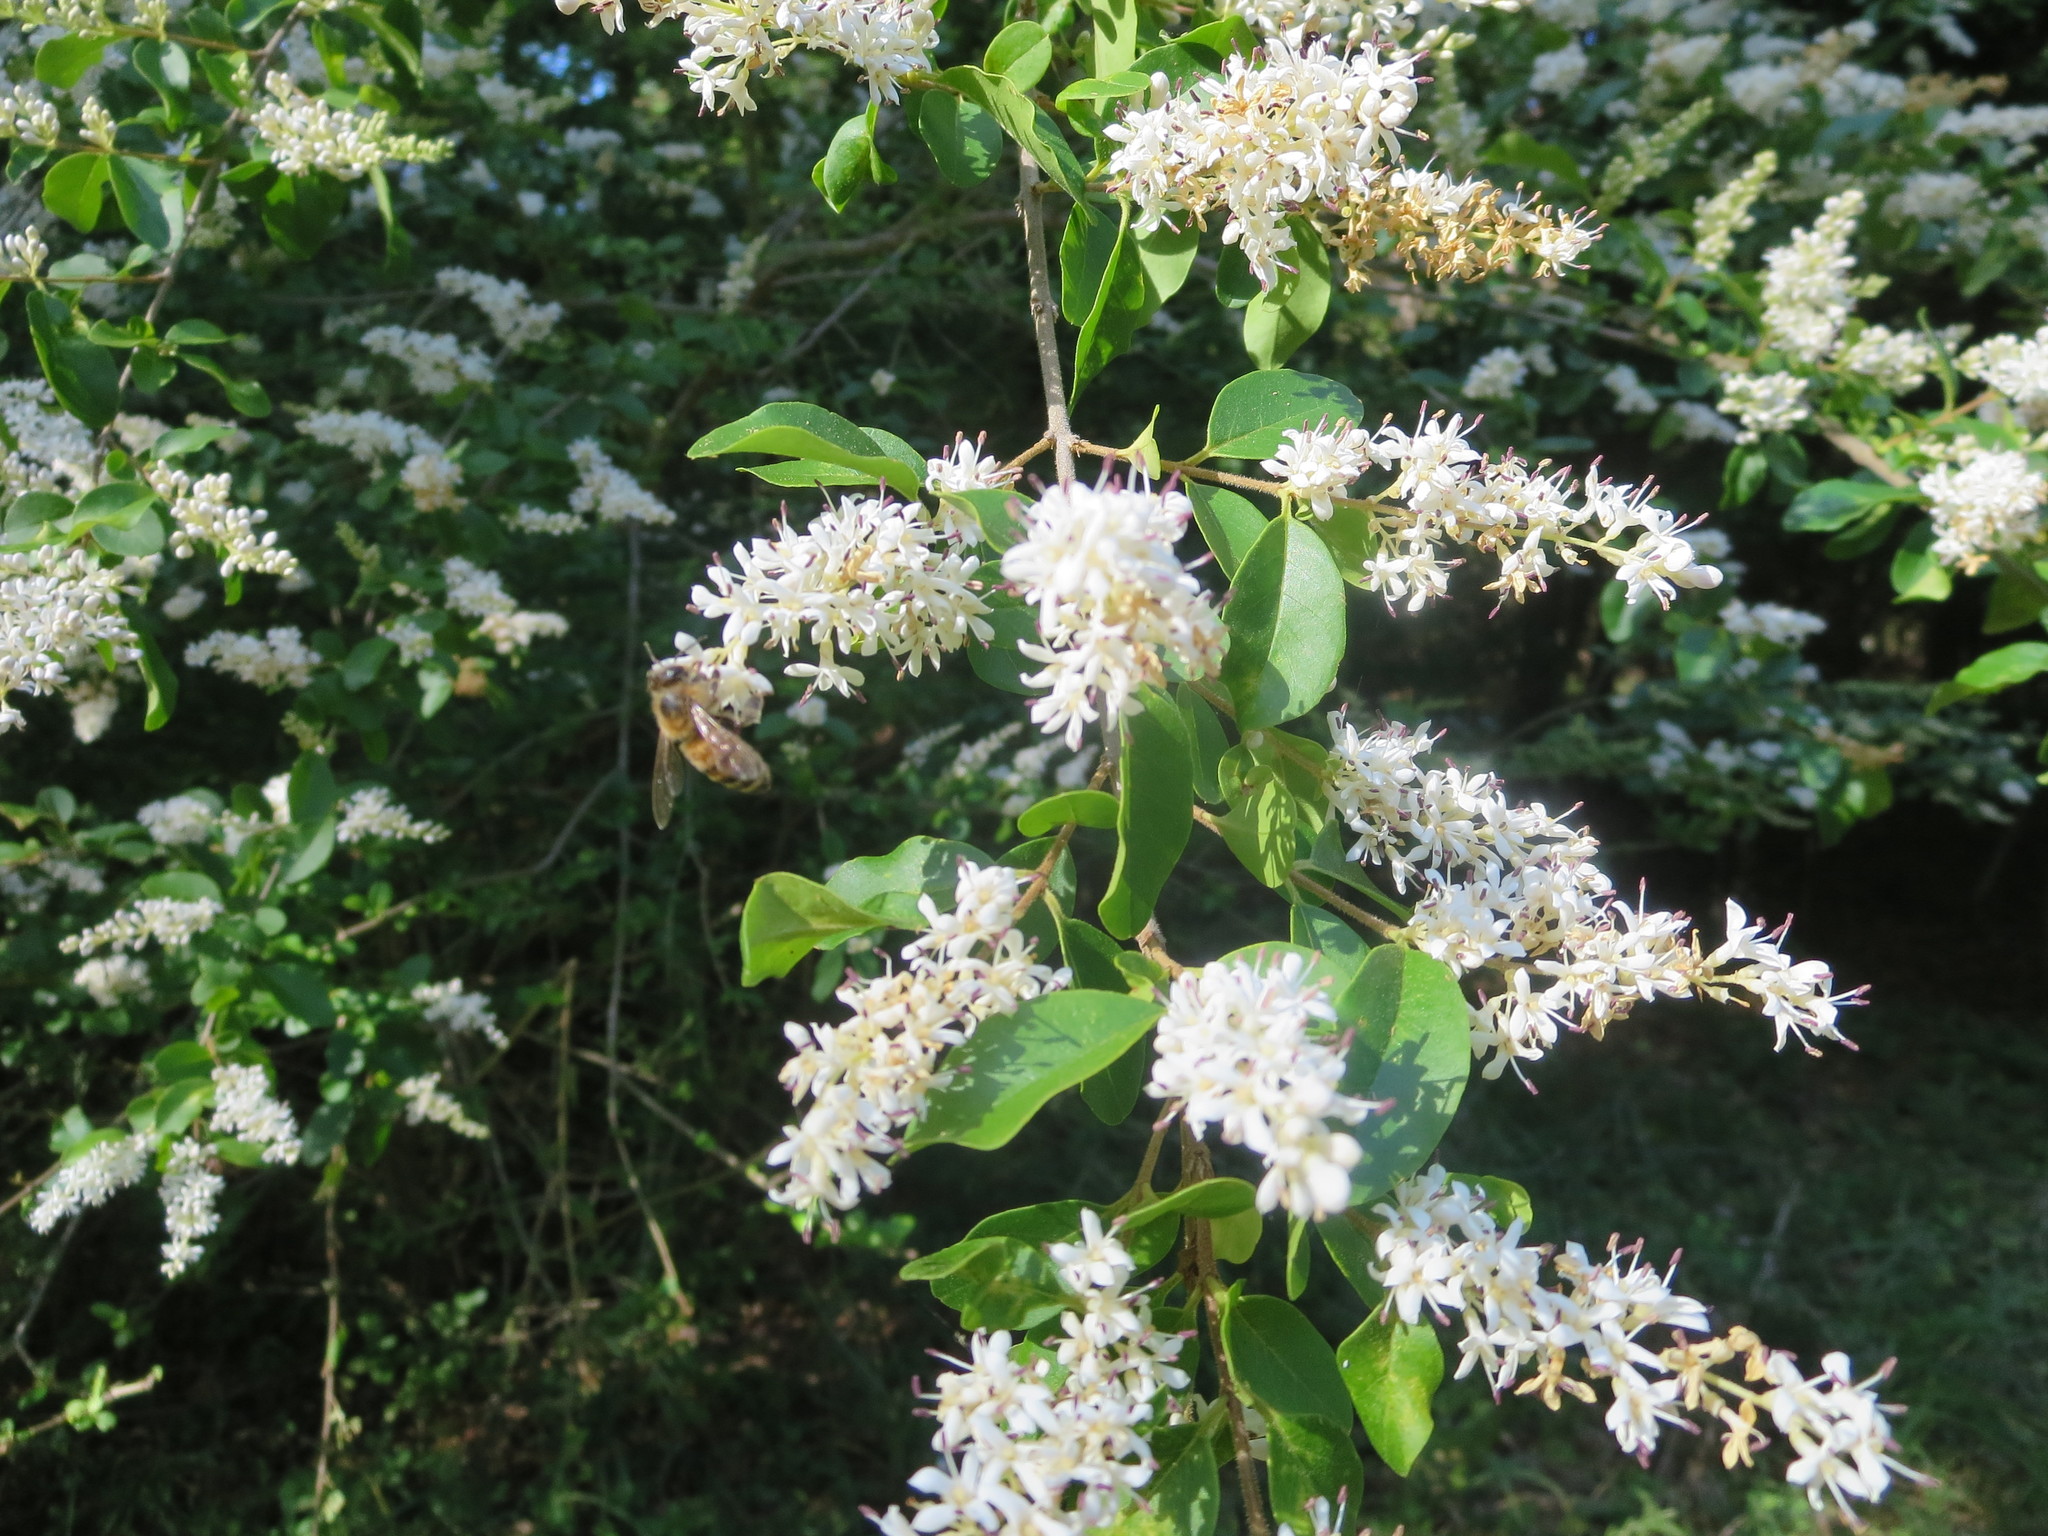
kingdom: Plantae
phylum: Tracheophyta
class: Magnoliopsida
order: Lamiales
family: Oleaceae
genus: Ligustrum
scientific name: Ligustrum sinense
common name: Chinese privet
